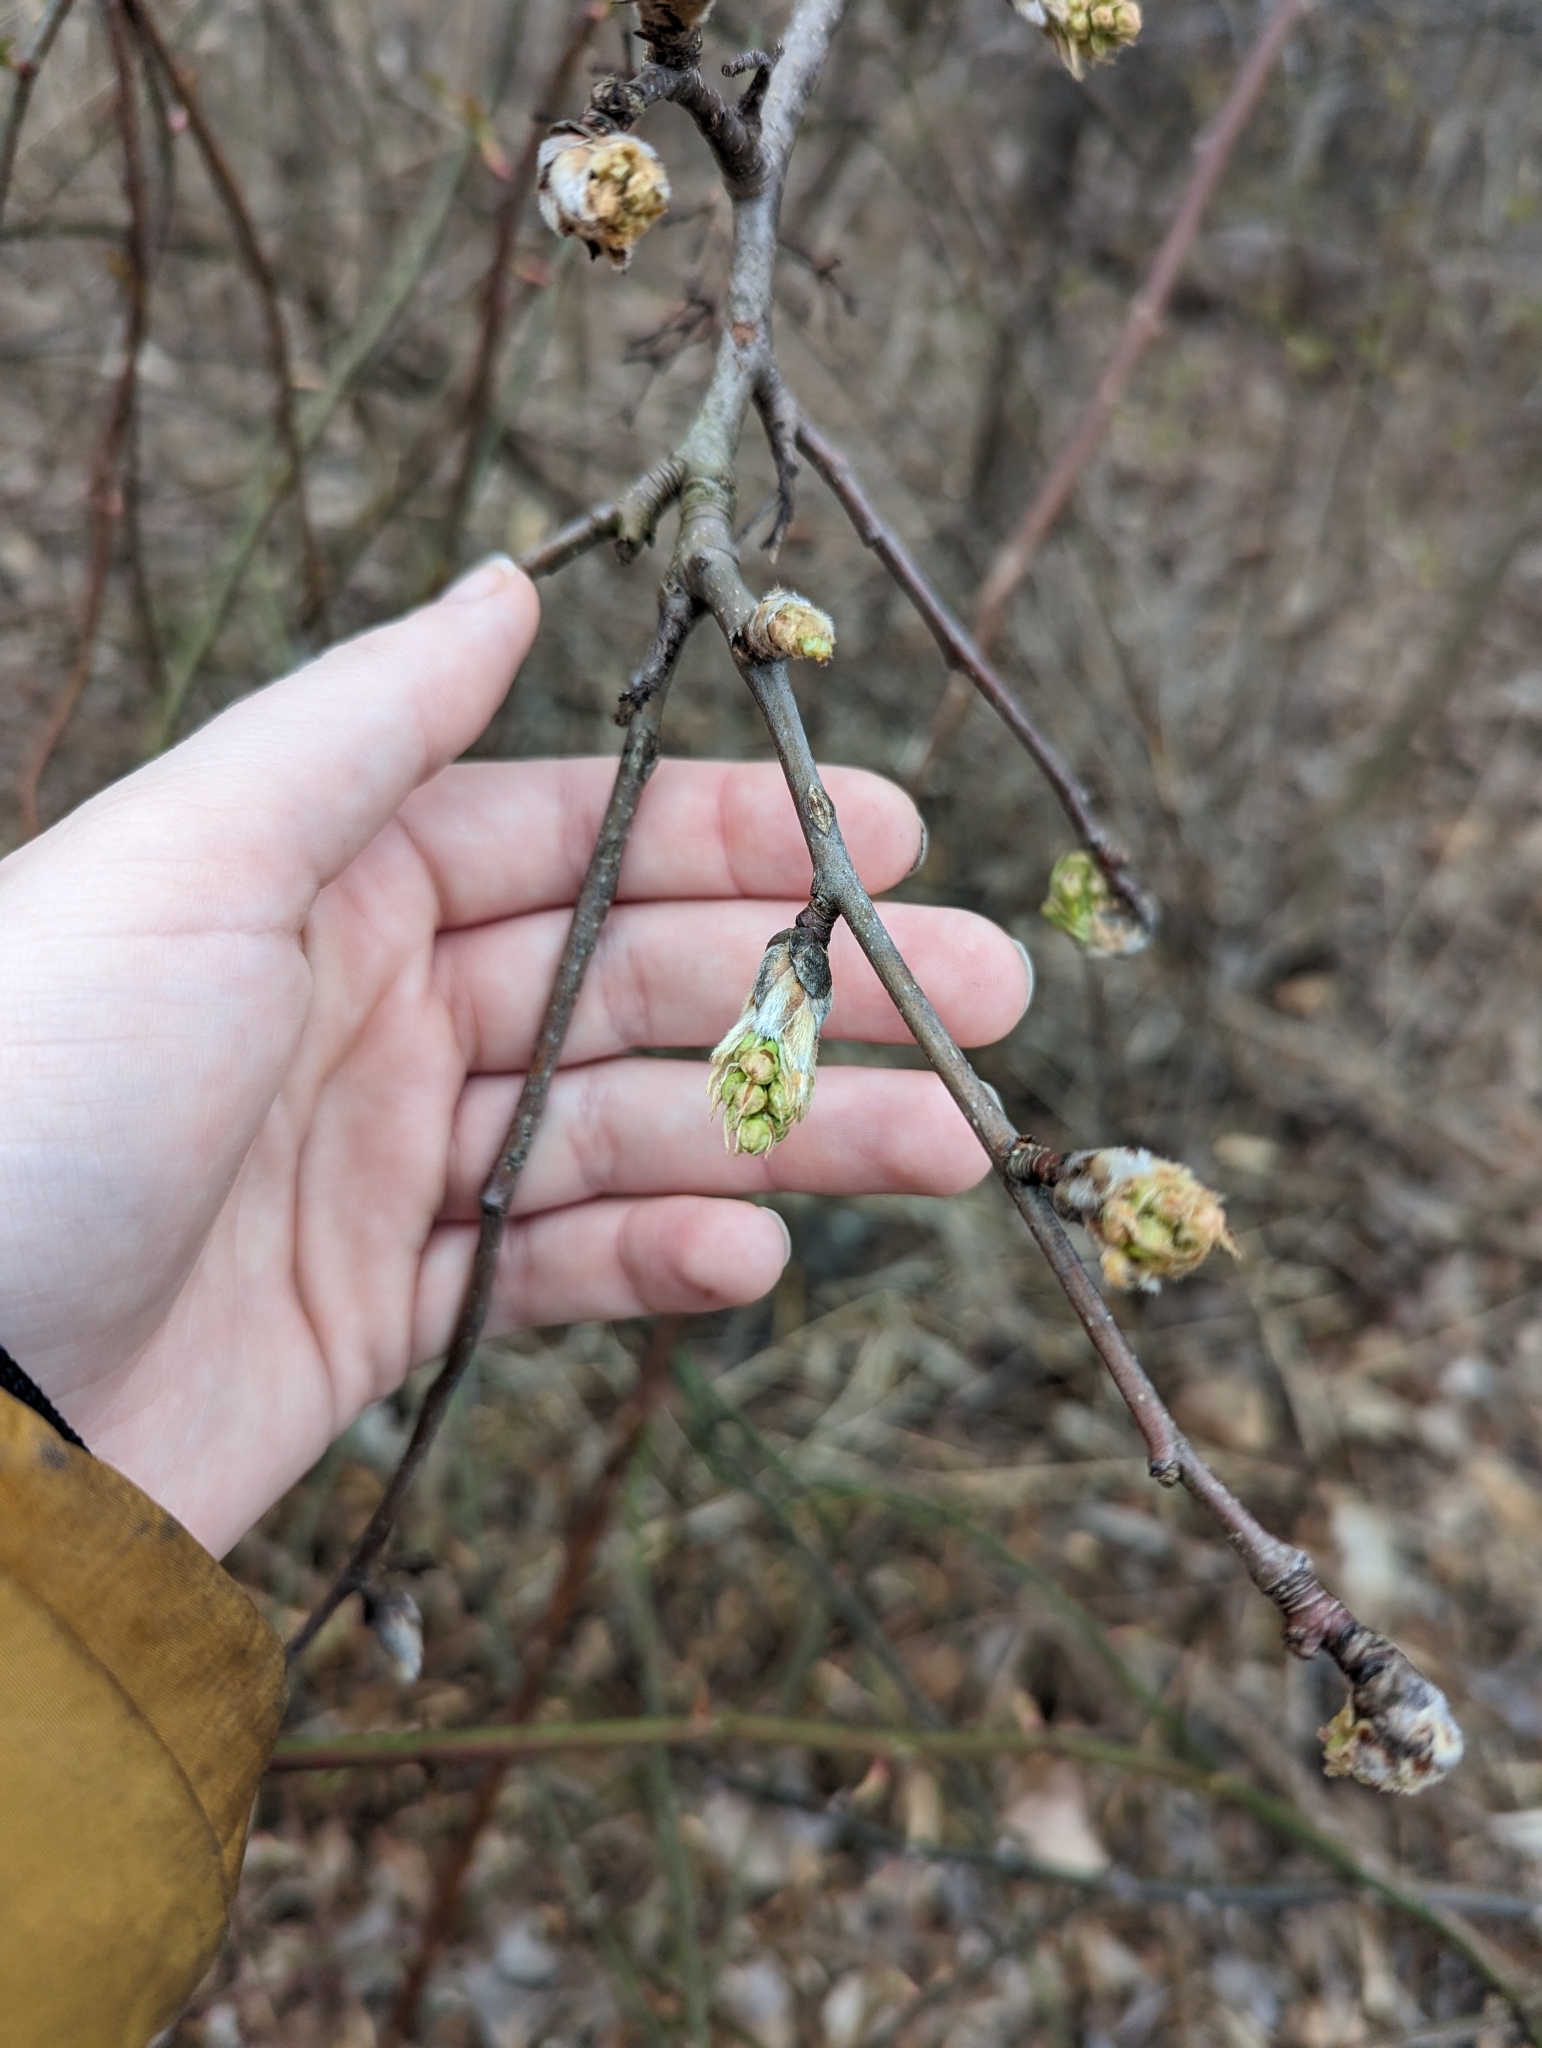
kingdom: Plantae
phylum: Tracheophyta
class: Magnoliopsida
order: Rosales
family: Rosaceae
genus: Pyrus
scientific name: Pyrus calleryana
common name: Callery pear
